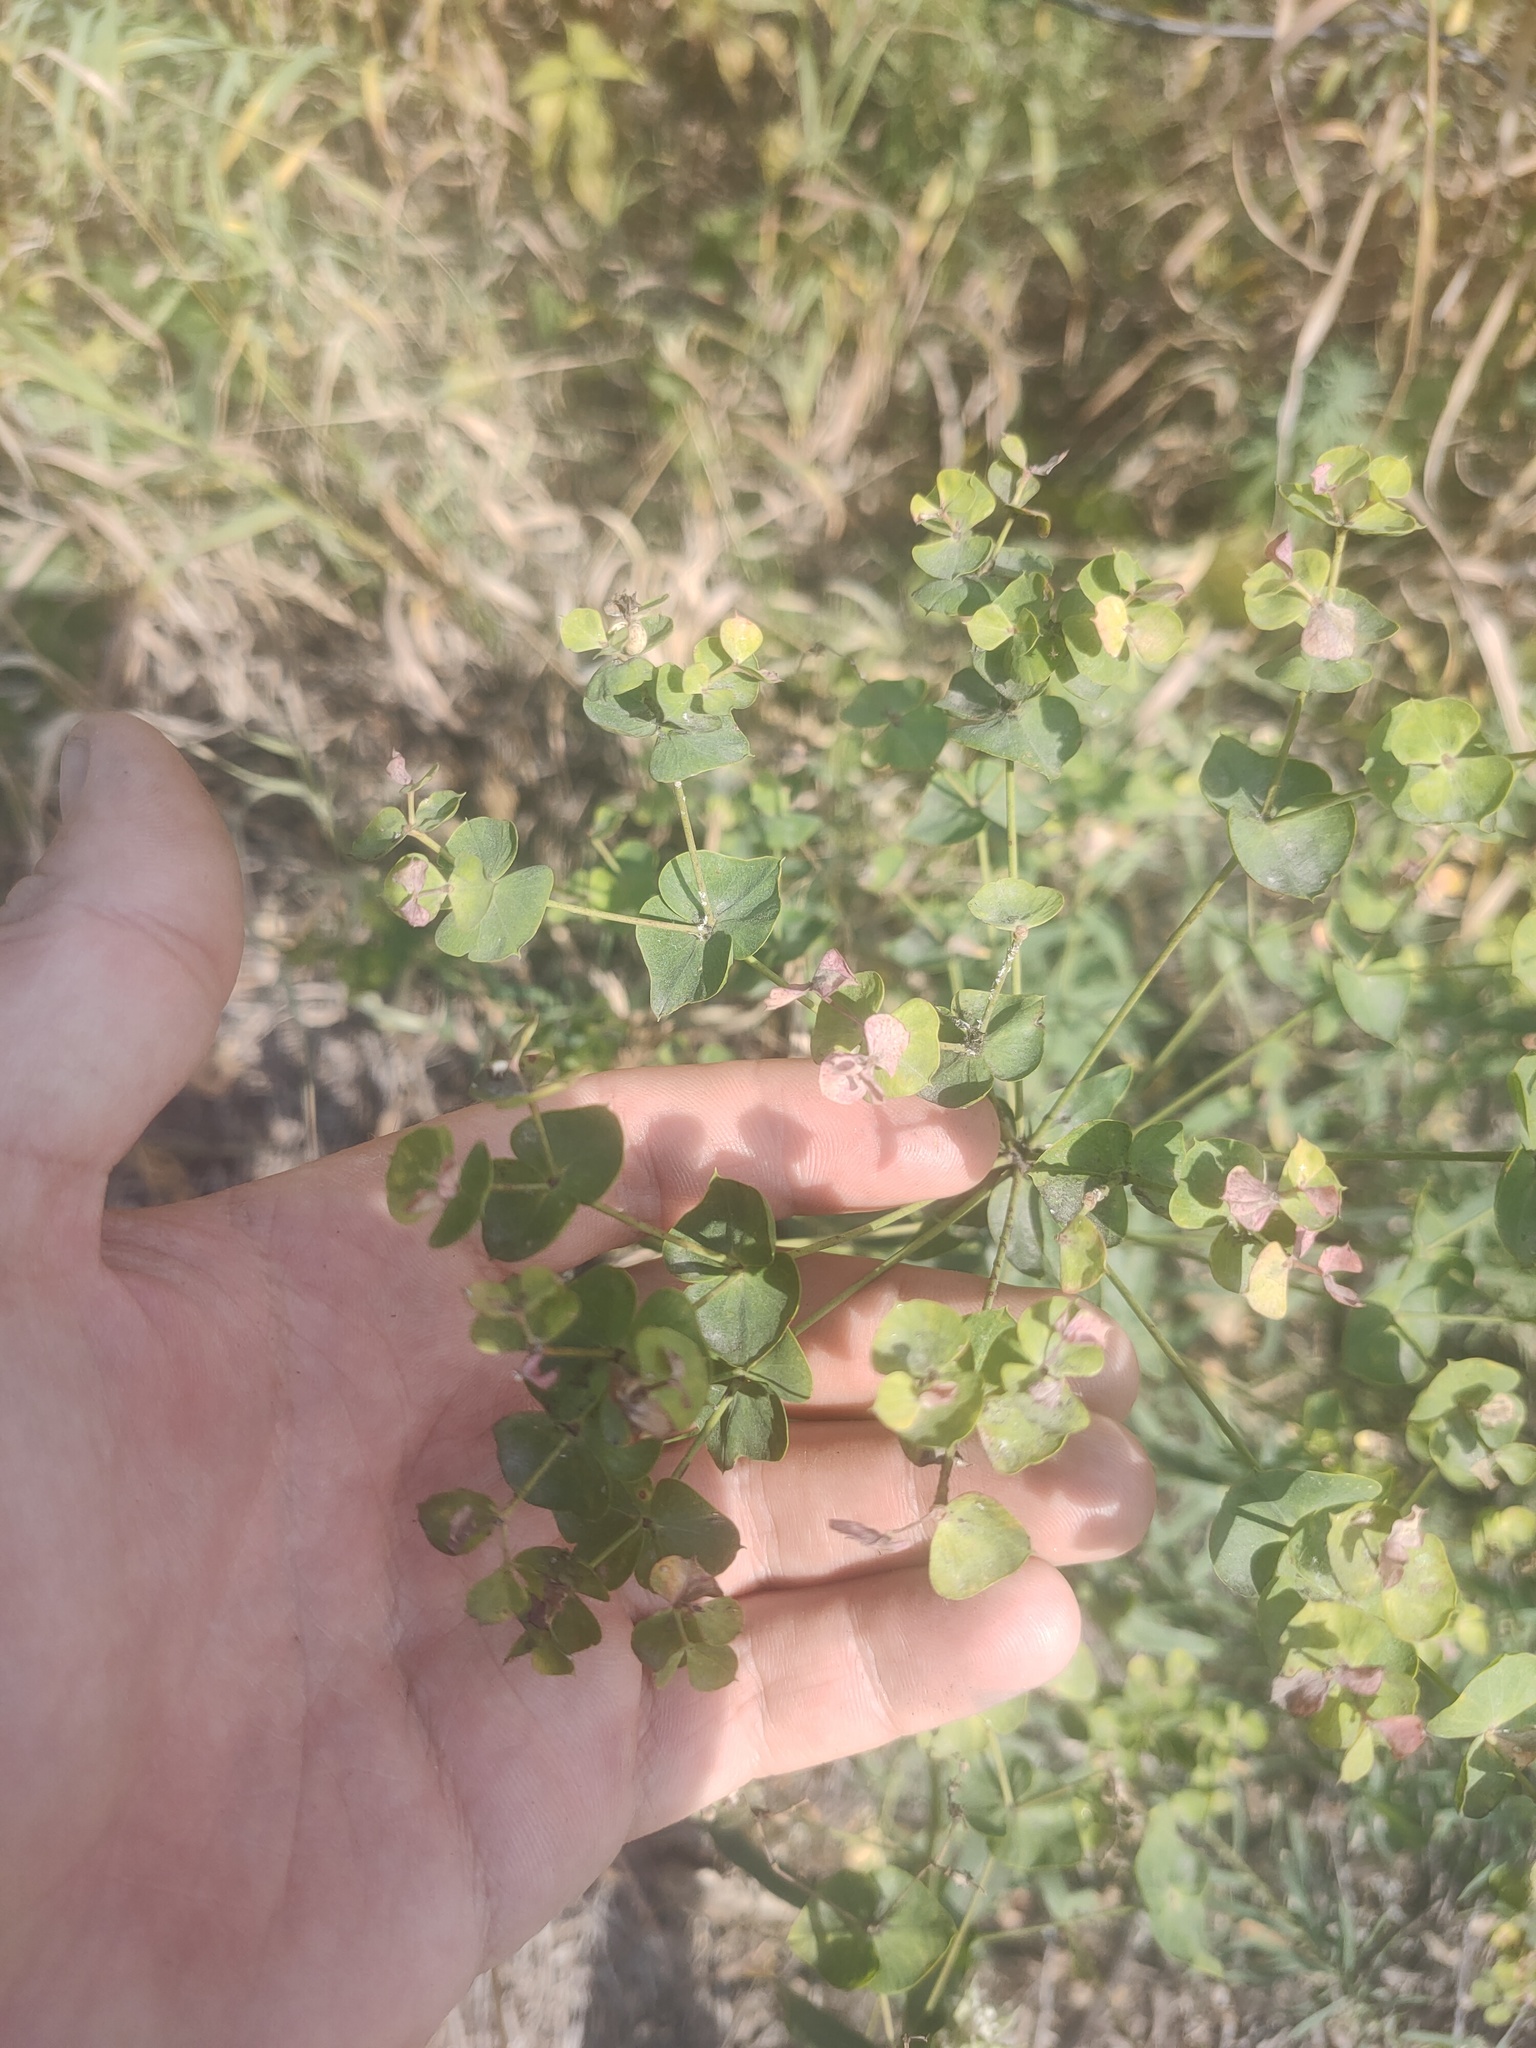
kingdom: Plantae
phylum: Tracheophyta
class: Magnoliopsida
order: Malpighiales
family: Euphorbiaceae
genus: Euphorbia
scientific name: Euphorbia virgata
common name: Leafy spurge
